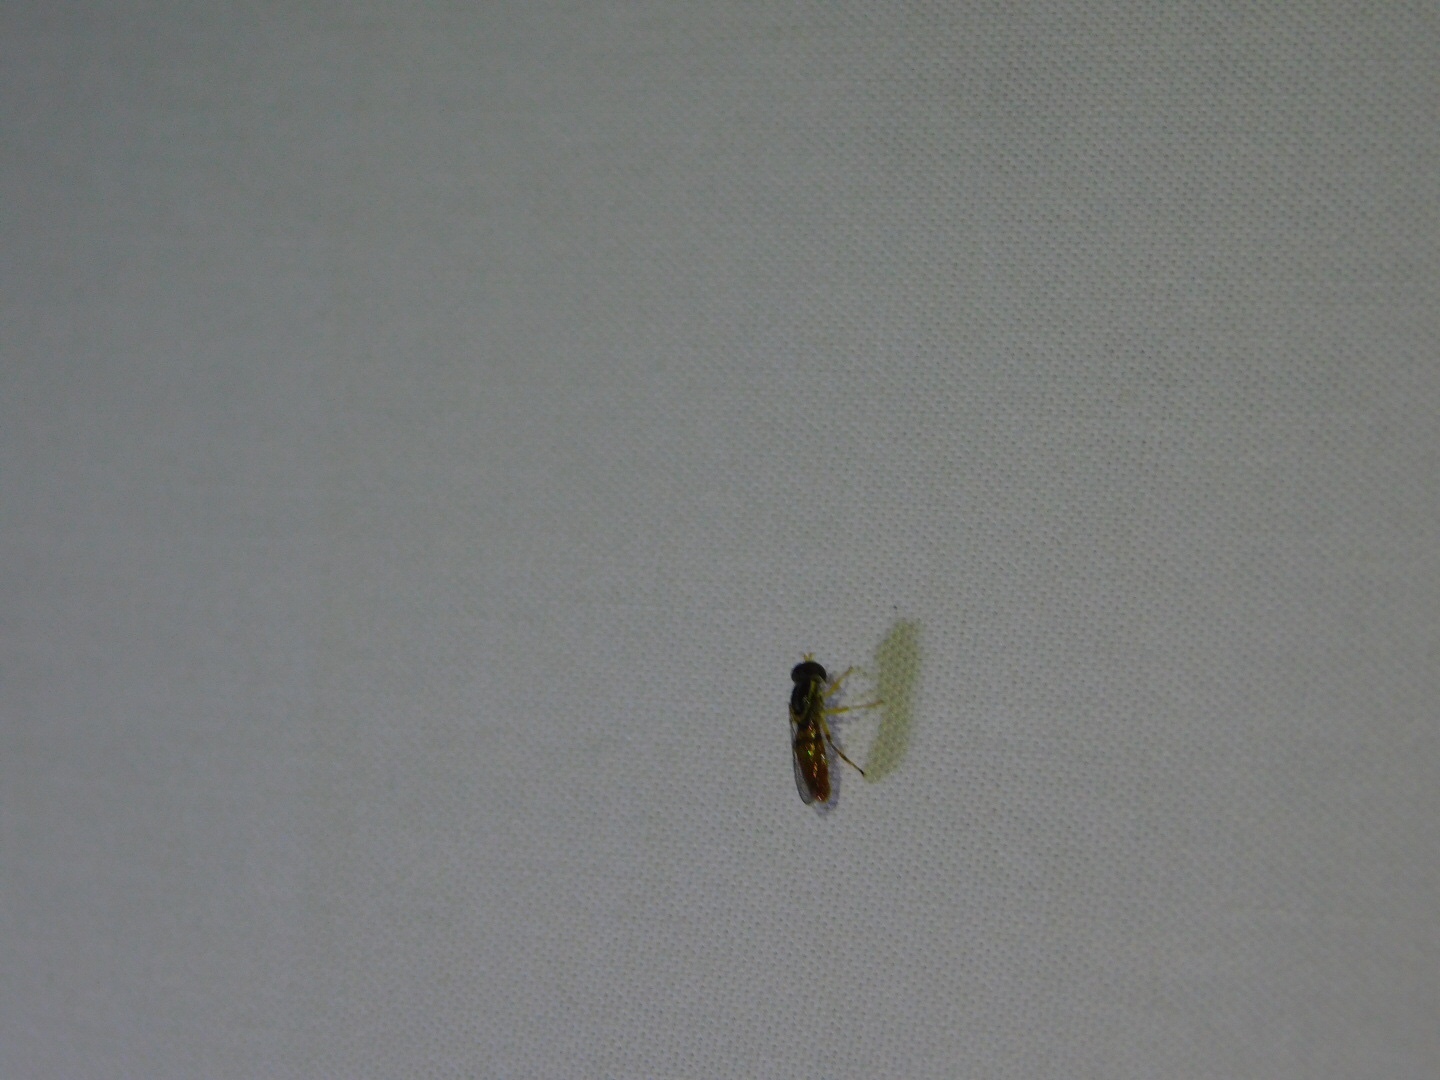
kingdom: Animalia
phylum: Arthropoda
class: Insecta
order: Diptera
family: Syrphidae
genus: Toxomerus
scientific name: Toxomerus
